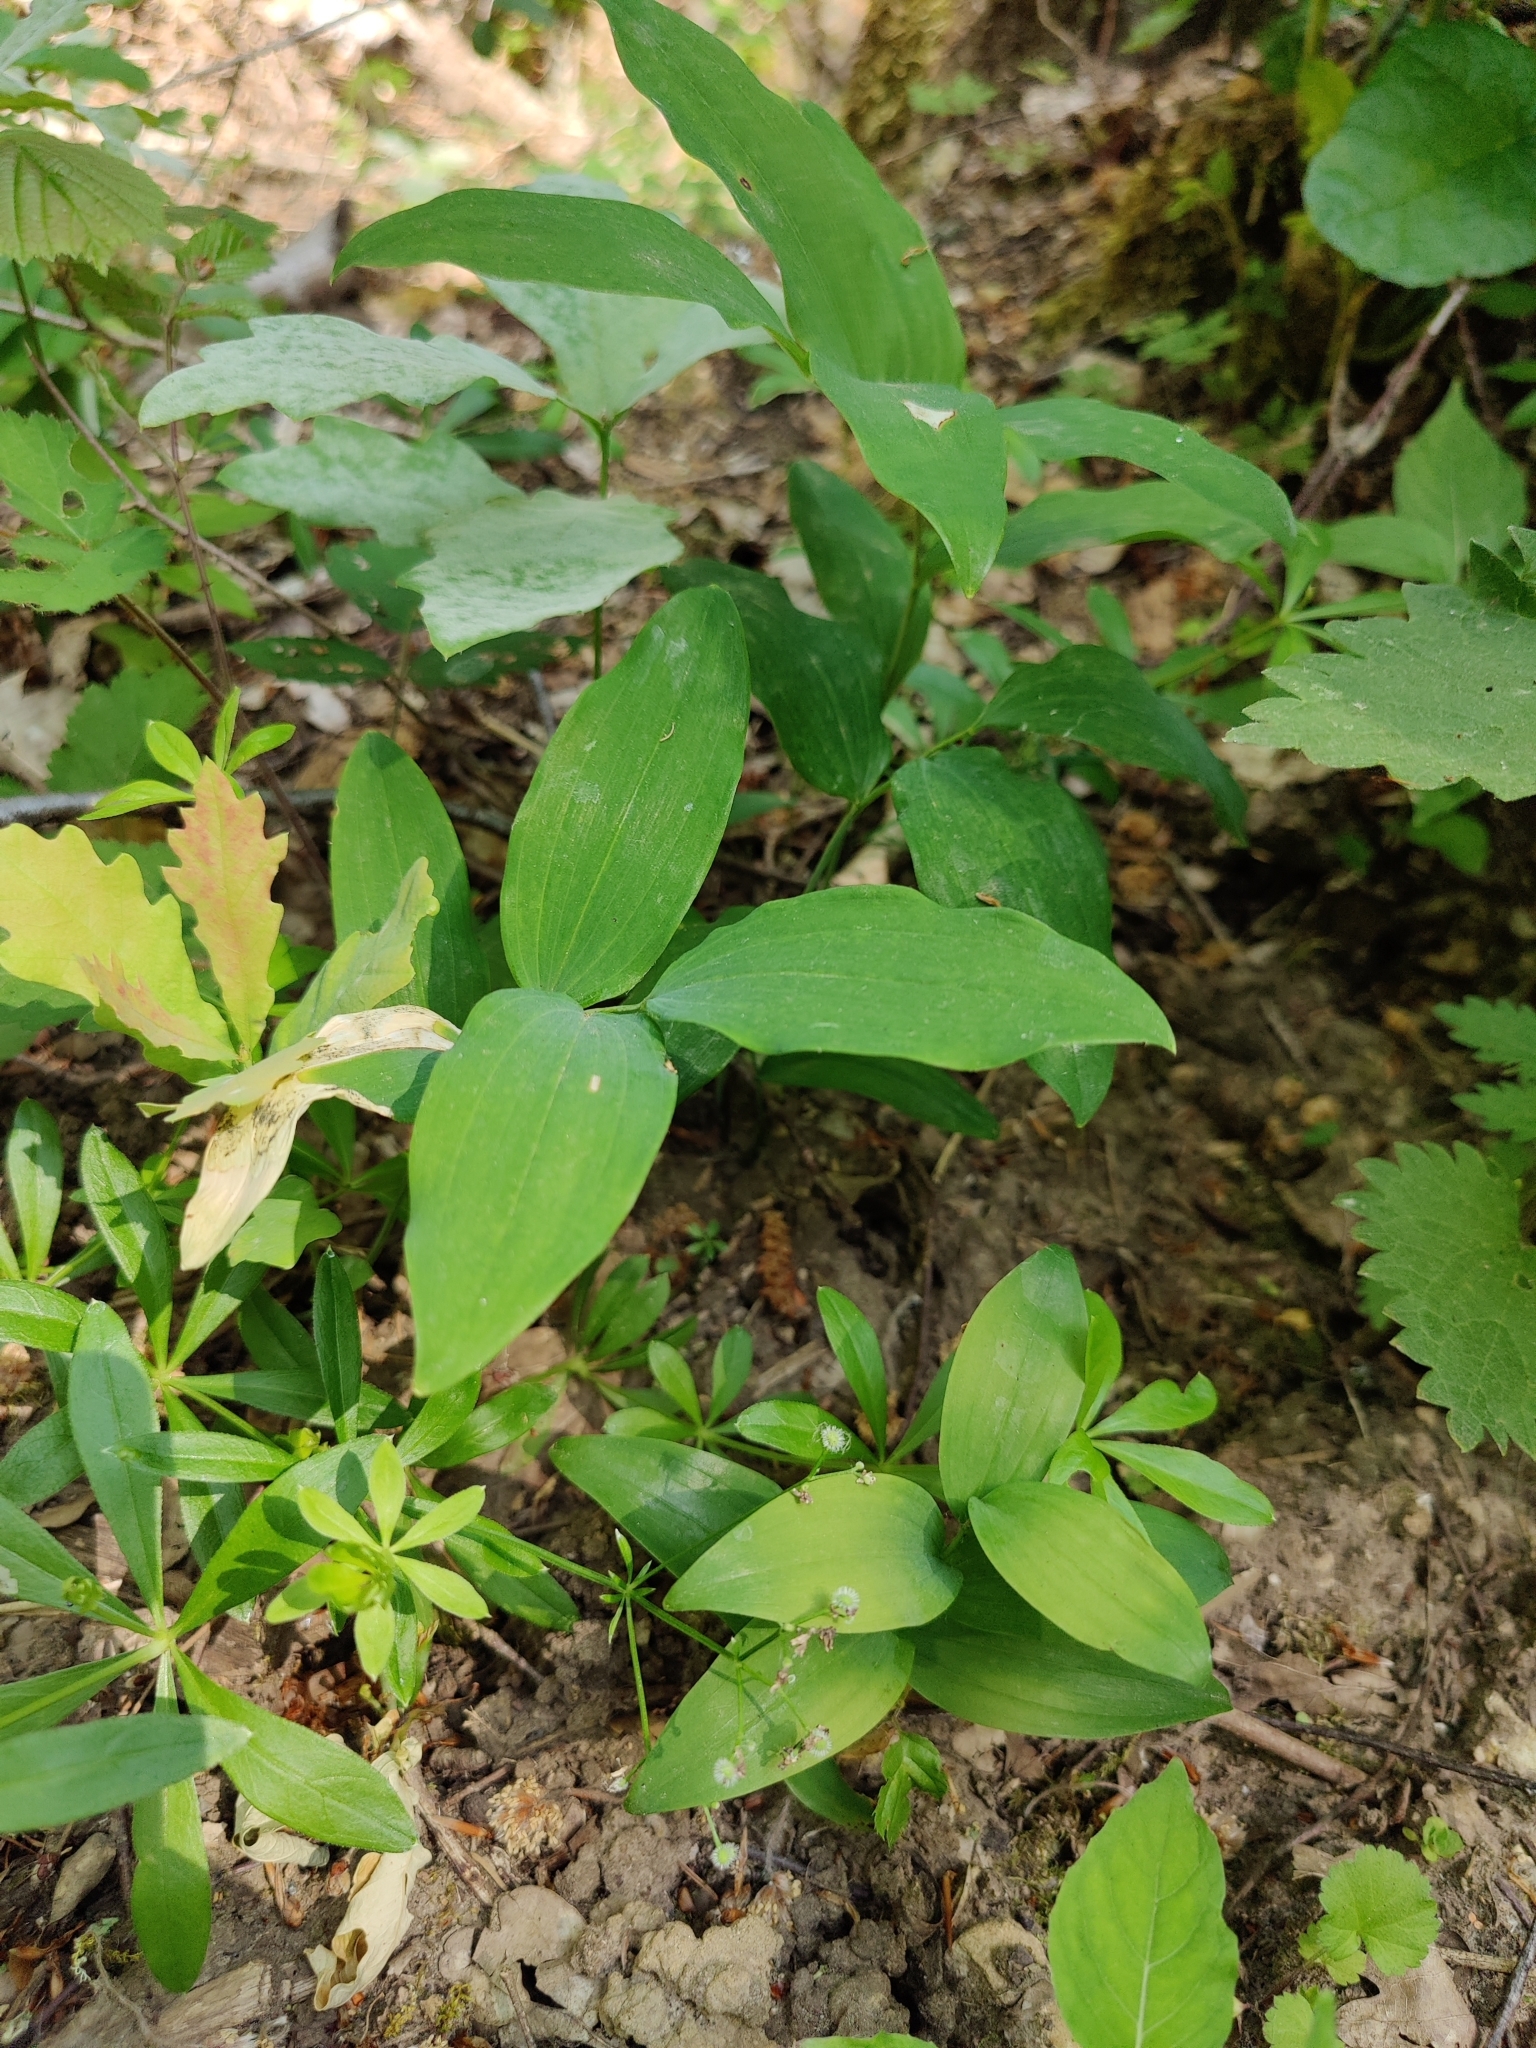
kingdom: Plantae
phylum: Tracheophyta
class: Liliopsida
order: Asparagales
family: Asparagaceae
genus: Polygonatum
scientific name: Polygonatum multiflorum
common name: Solomon's-seal
